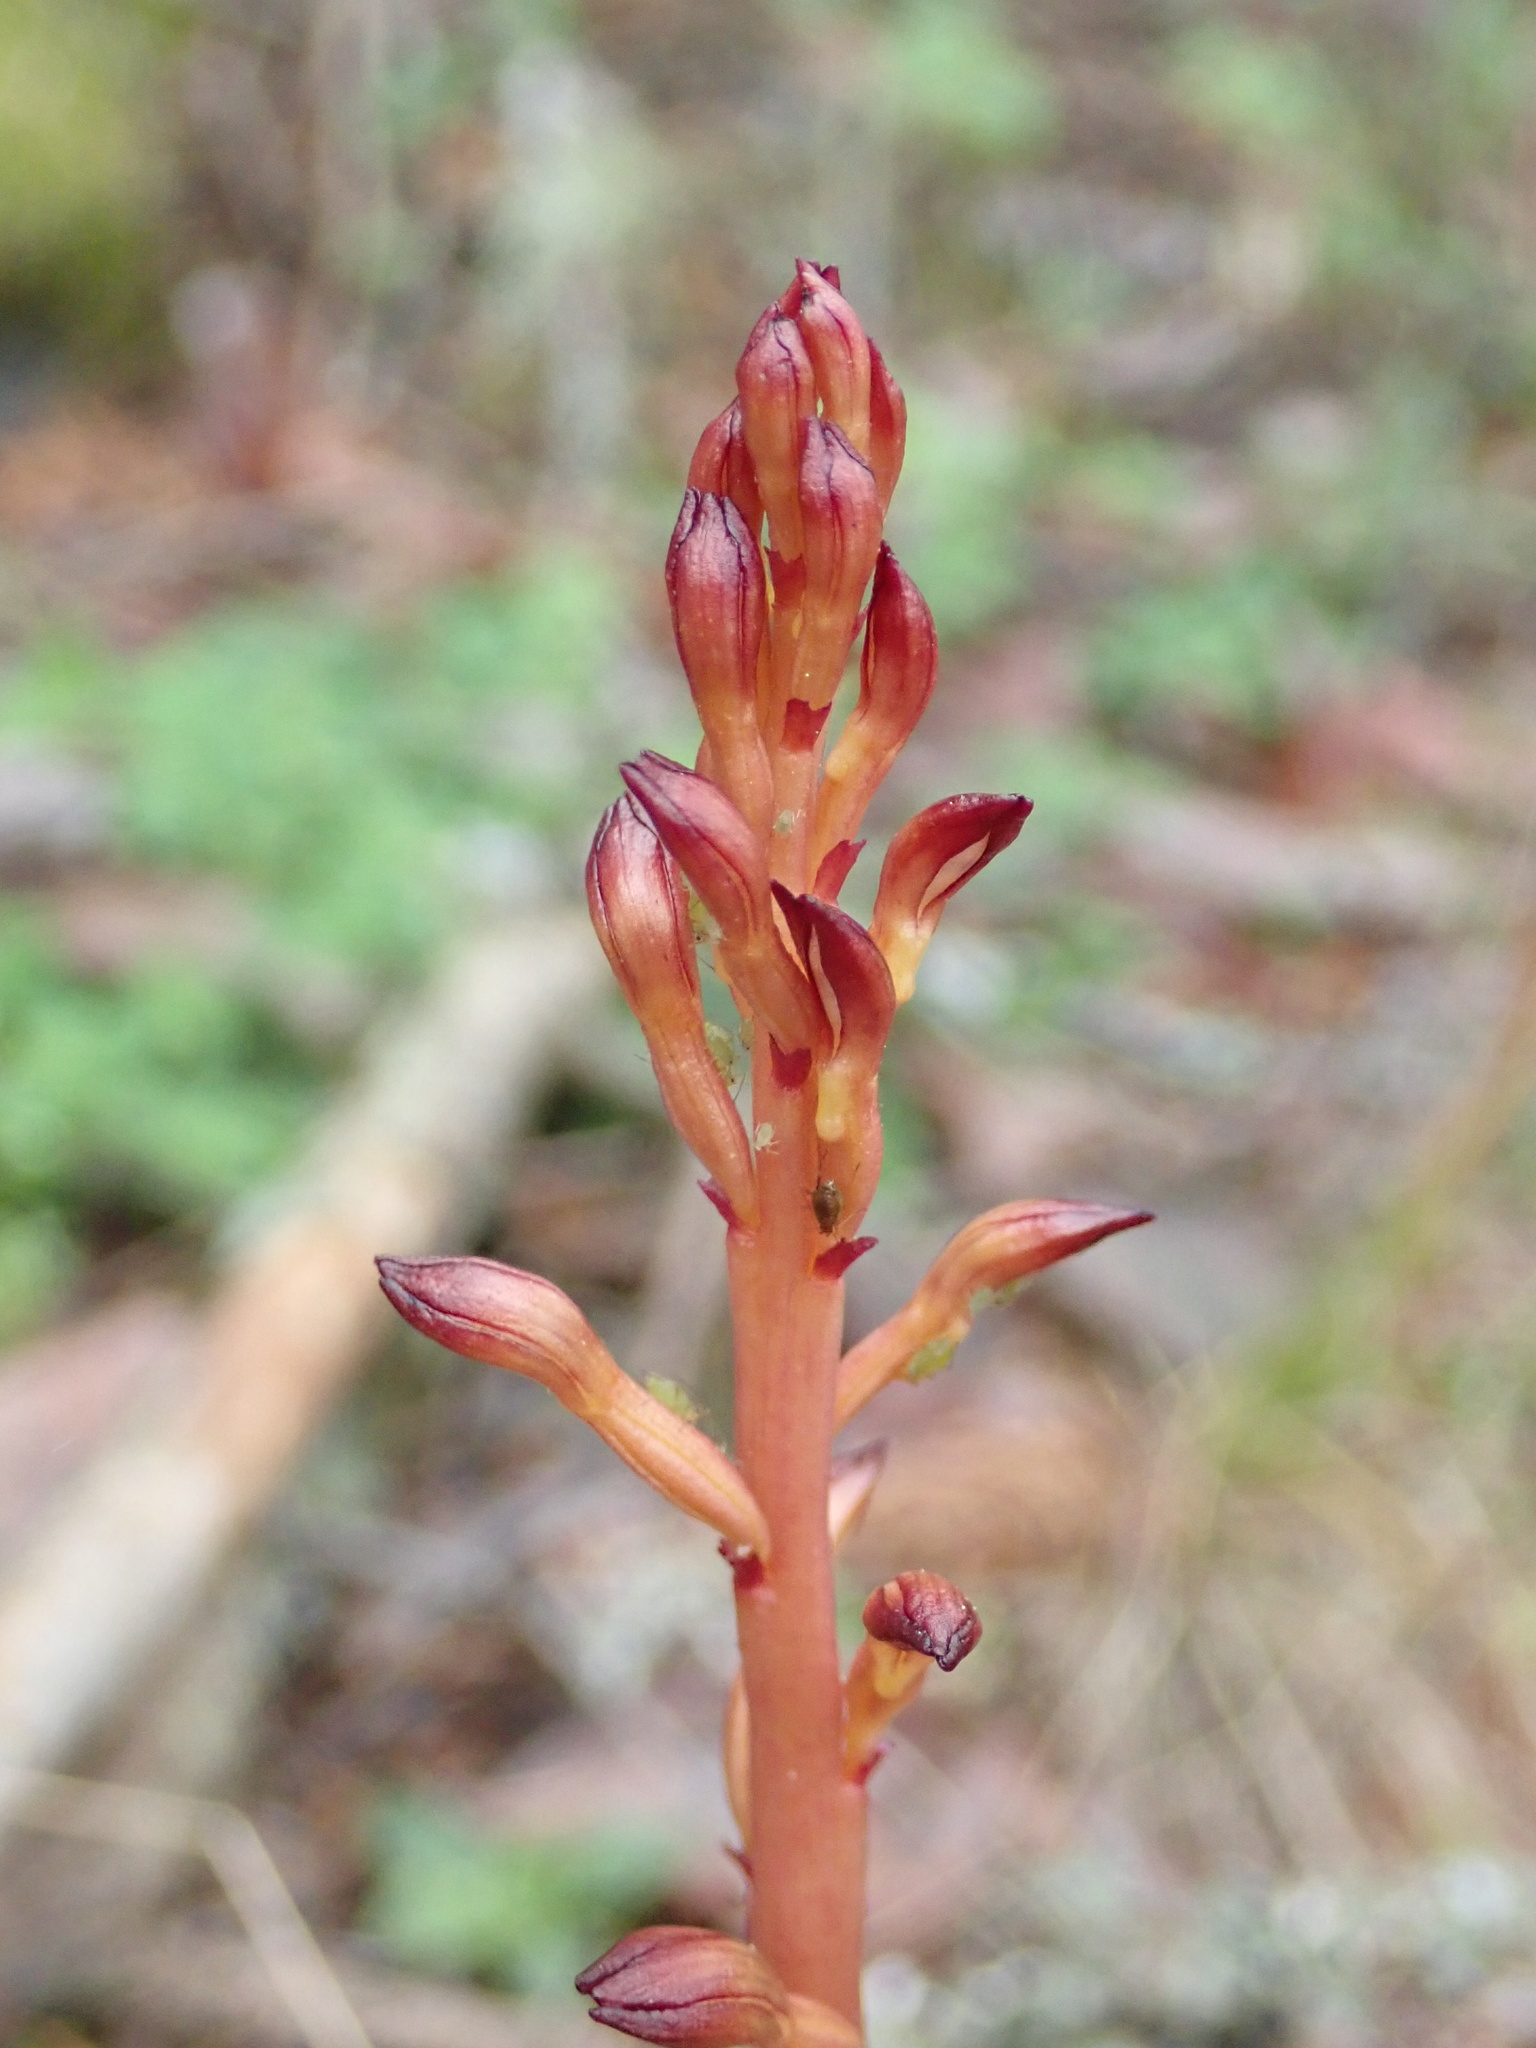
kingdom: Plantae
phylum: Tracheophyta
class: Liliopsida
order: Asparagales
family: Orchidaceae
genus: Corallorhiza
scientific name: Corallorhiza maculata
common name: Spotted coralroot
